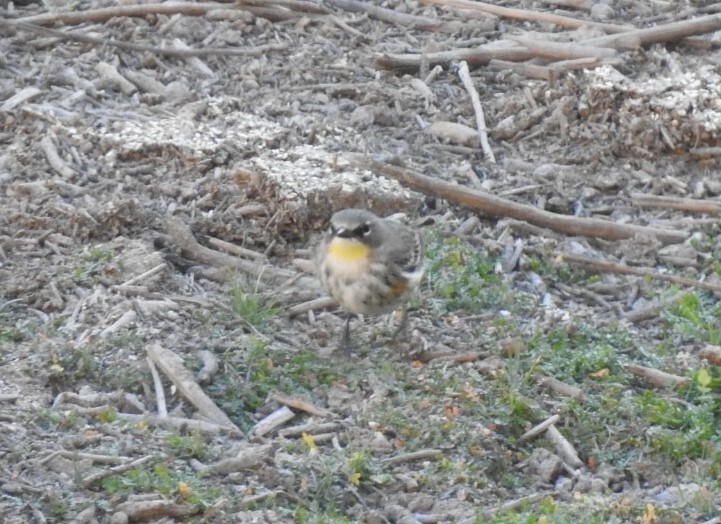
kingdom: Animalia
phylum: Chordata
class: Aves
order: Passeriformes
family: Parulidae
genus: Setophaga
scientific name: Setophaga coronata
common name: Myrtle warbler
